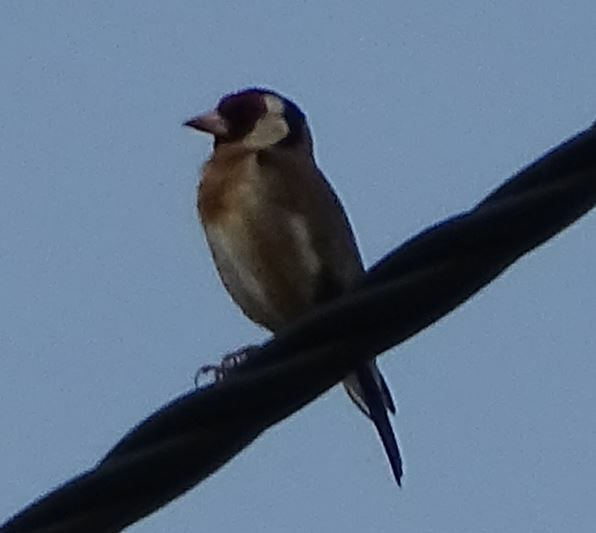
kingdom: Animalia
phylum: Chordata
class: Aves
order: Passeriformes
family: Fringillidae
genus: Carduelis
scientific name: Carduelis carduelis
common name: European goldfinch
